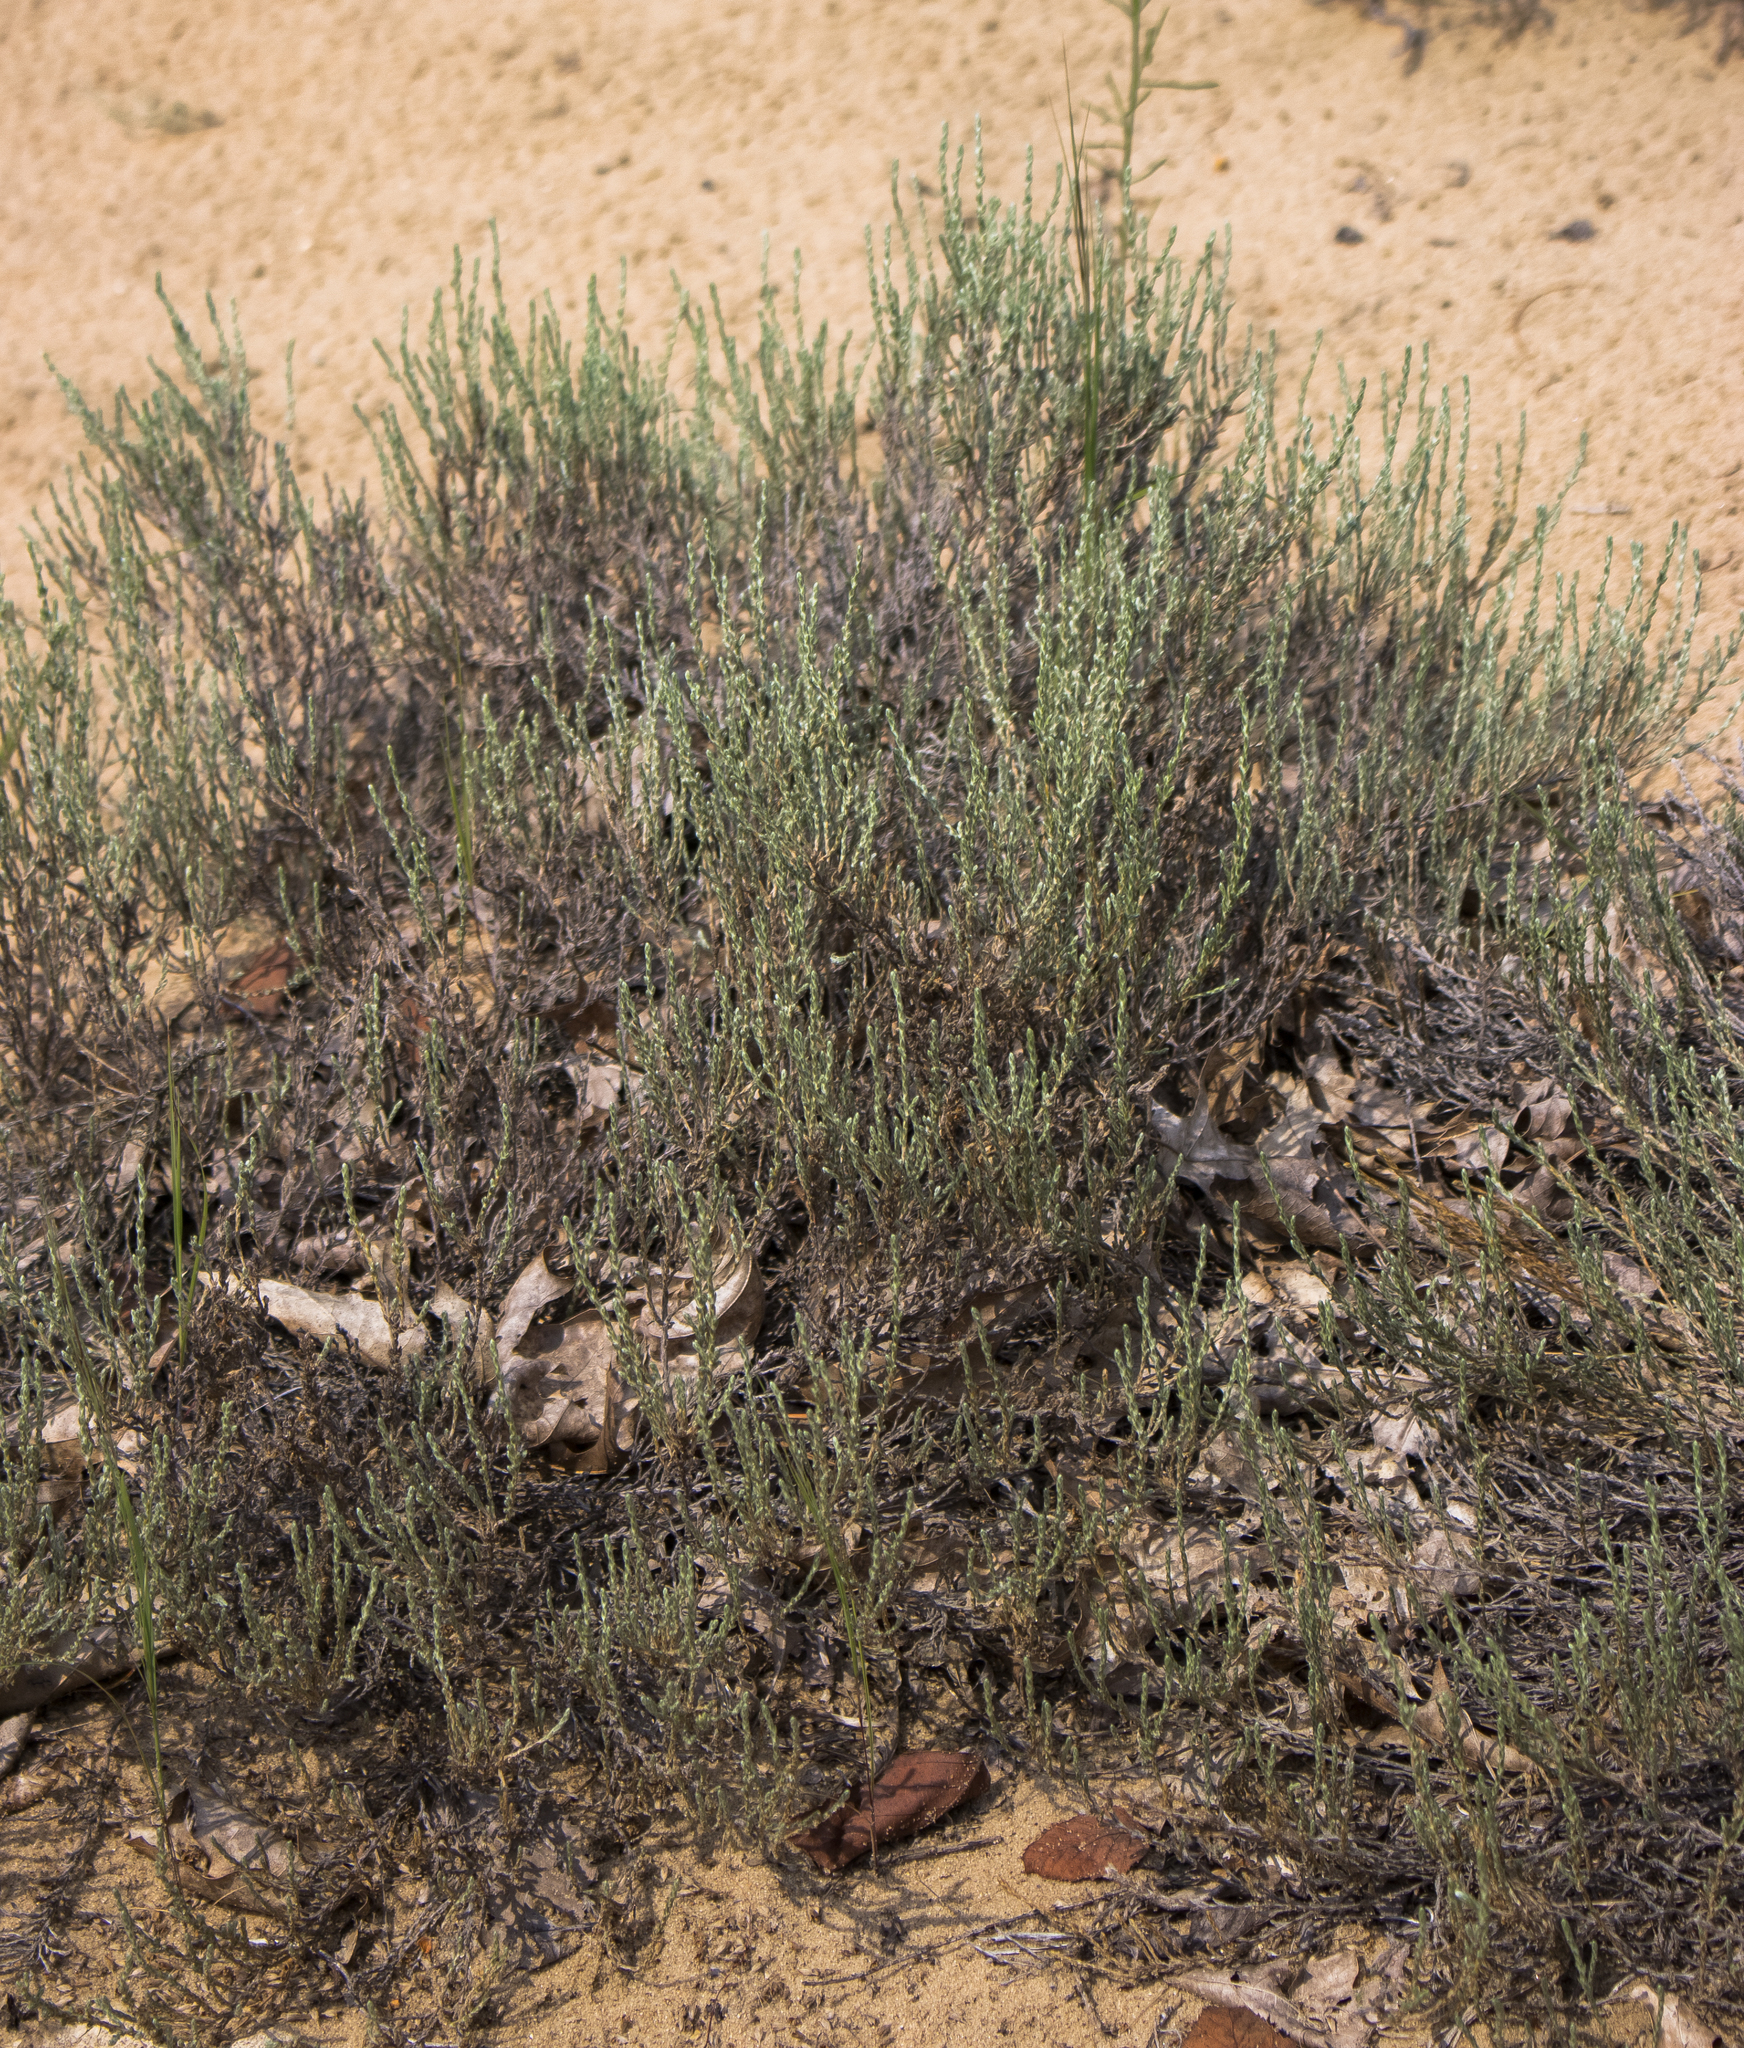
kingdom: Plantae
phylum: Tracheophyta
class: Magnoliopsida
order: Malvales
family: Cistaceae
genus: Hudsonia
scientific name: Hudsonia tomentosa
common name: Beach-heath
